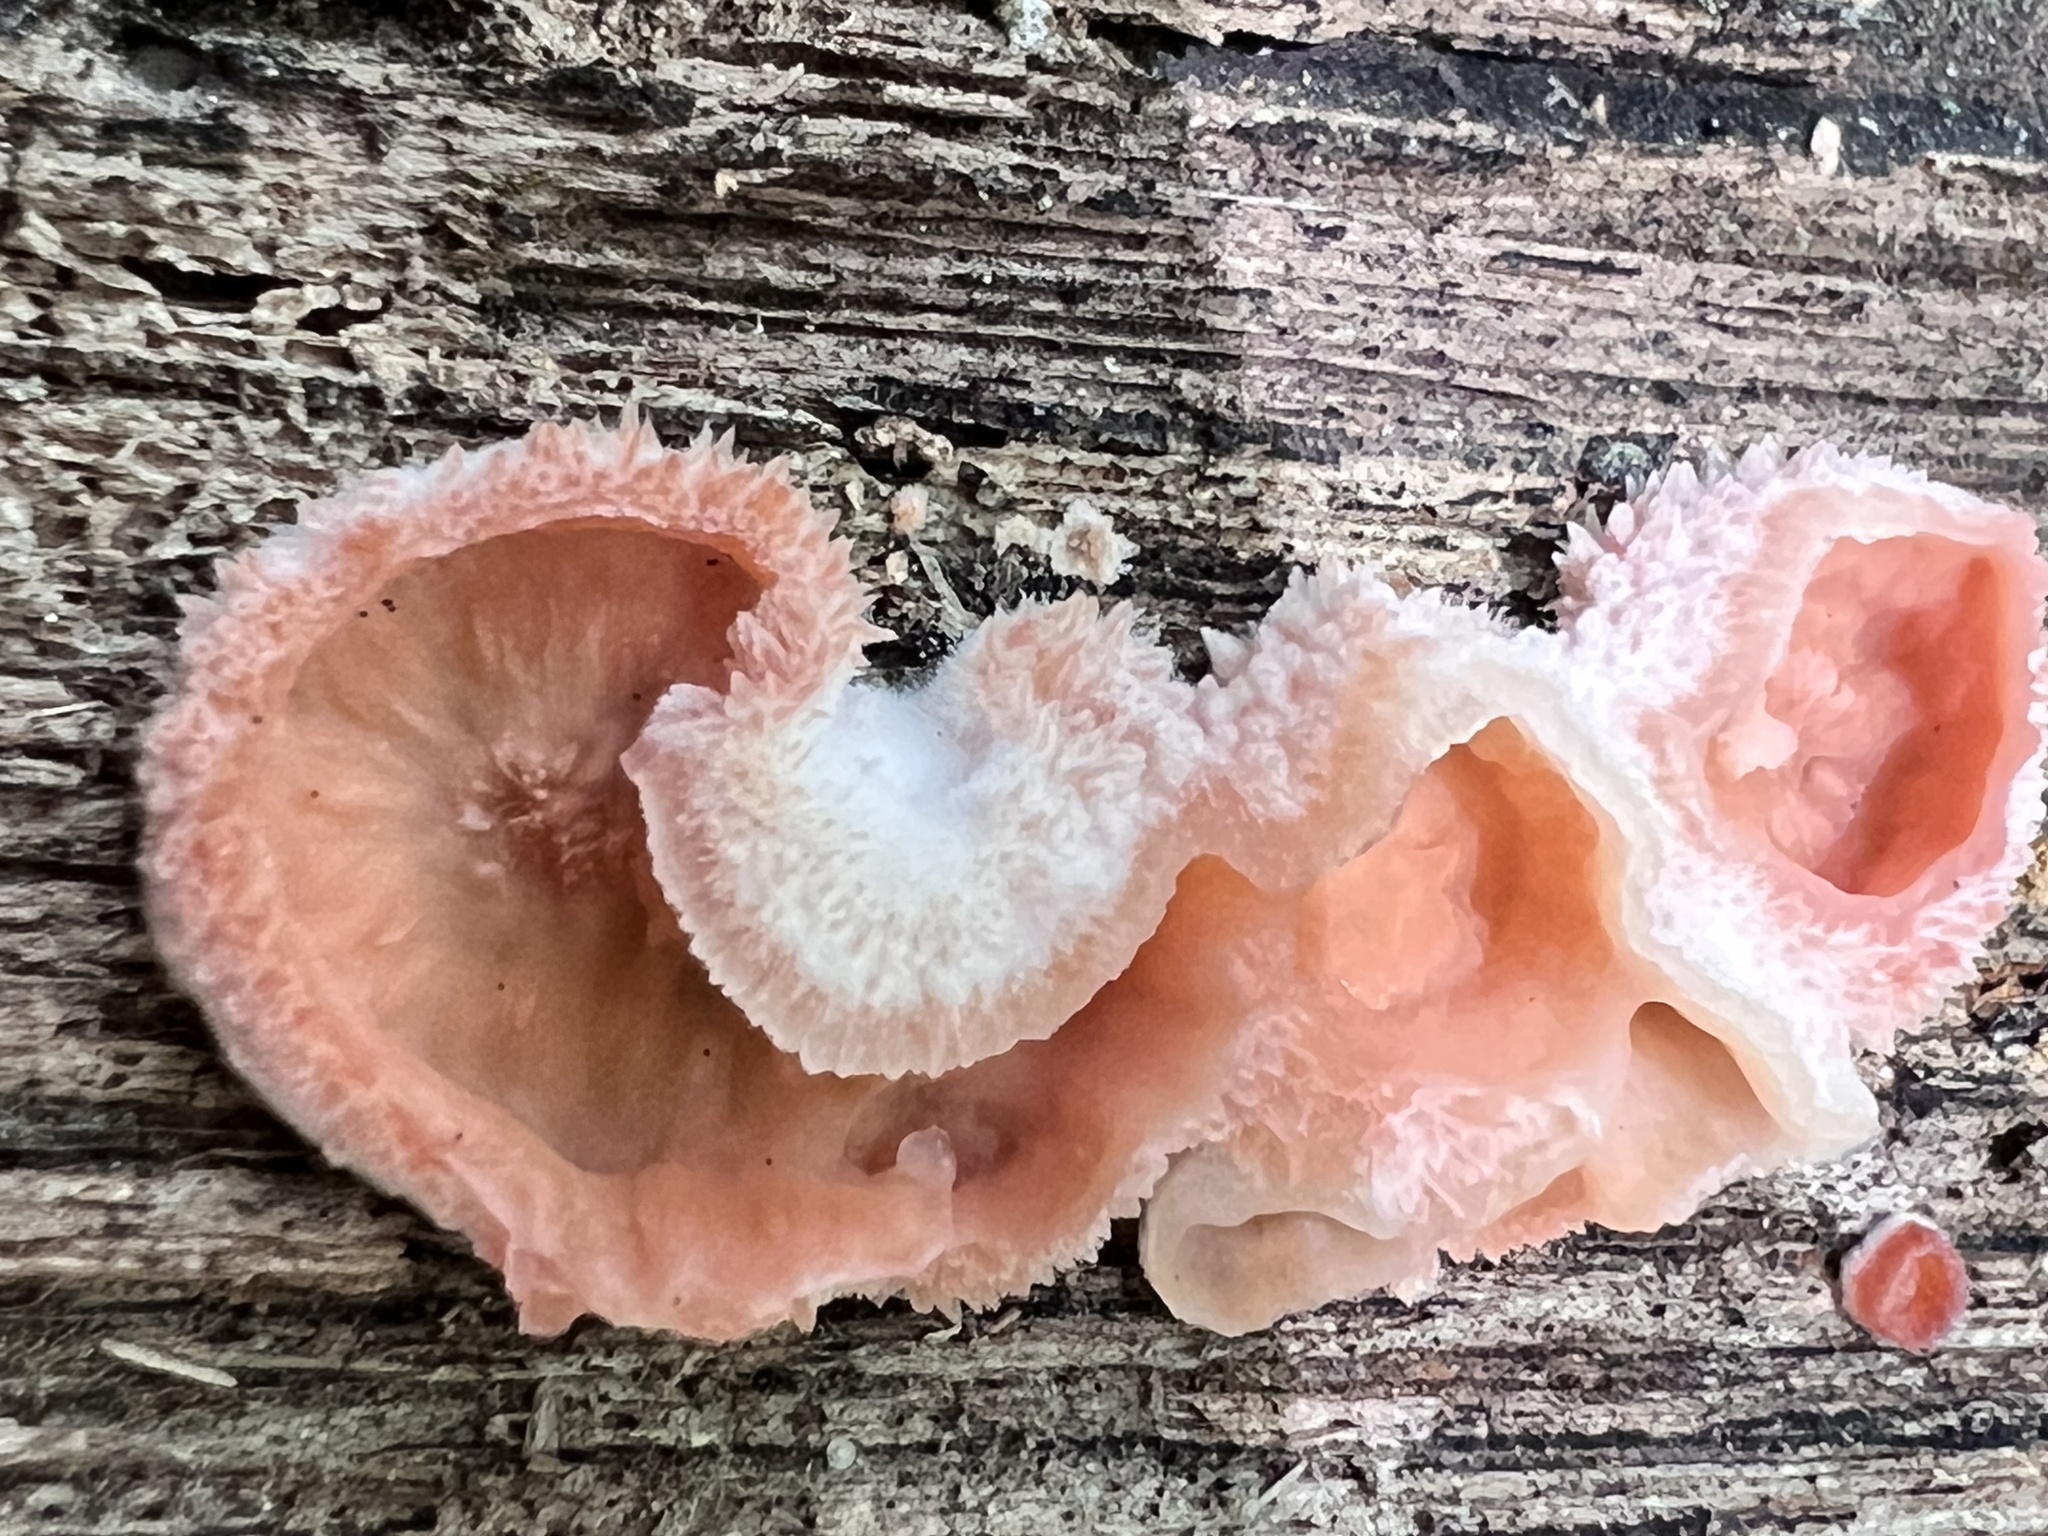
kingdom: Fungi
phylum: Basidiomycota
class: Agaricomycetes
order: Polyporales
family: Meruliaceae
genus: Phlebia
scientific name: Phlebia tremellosa
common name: Jelly rot
